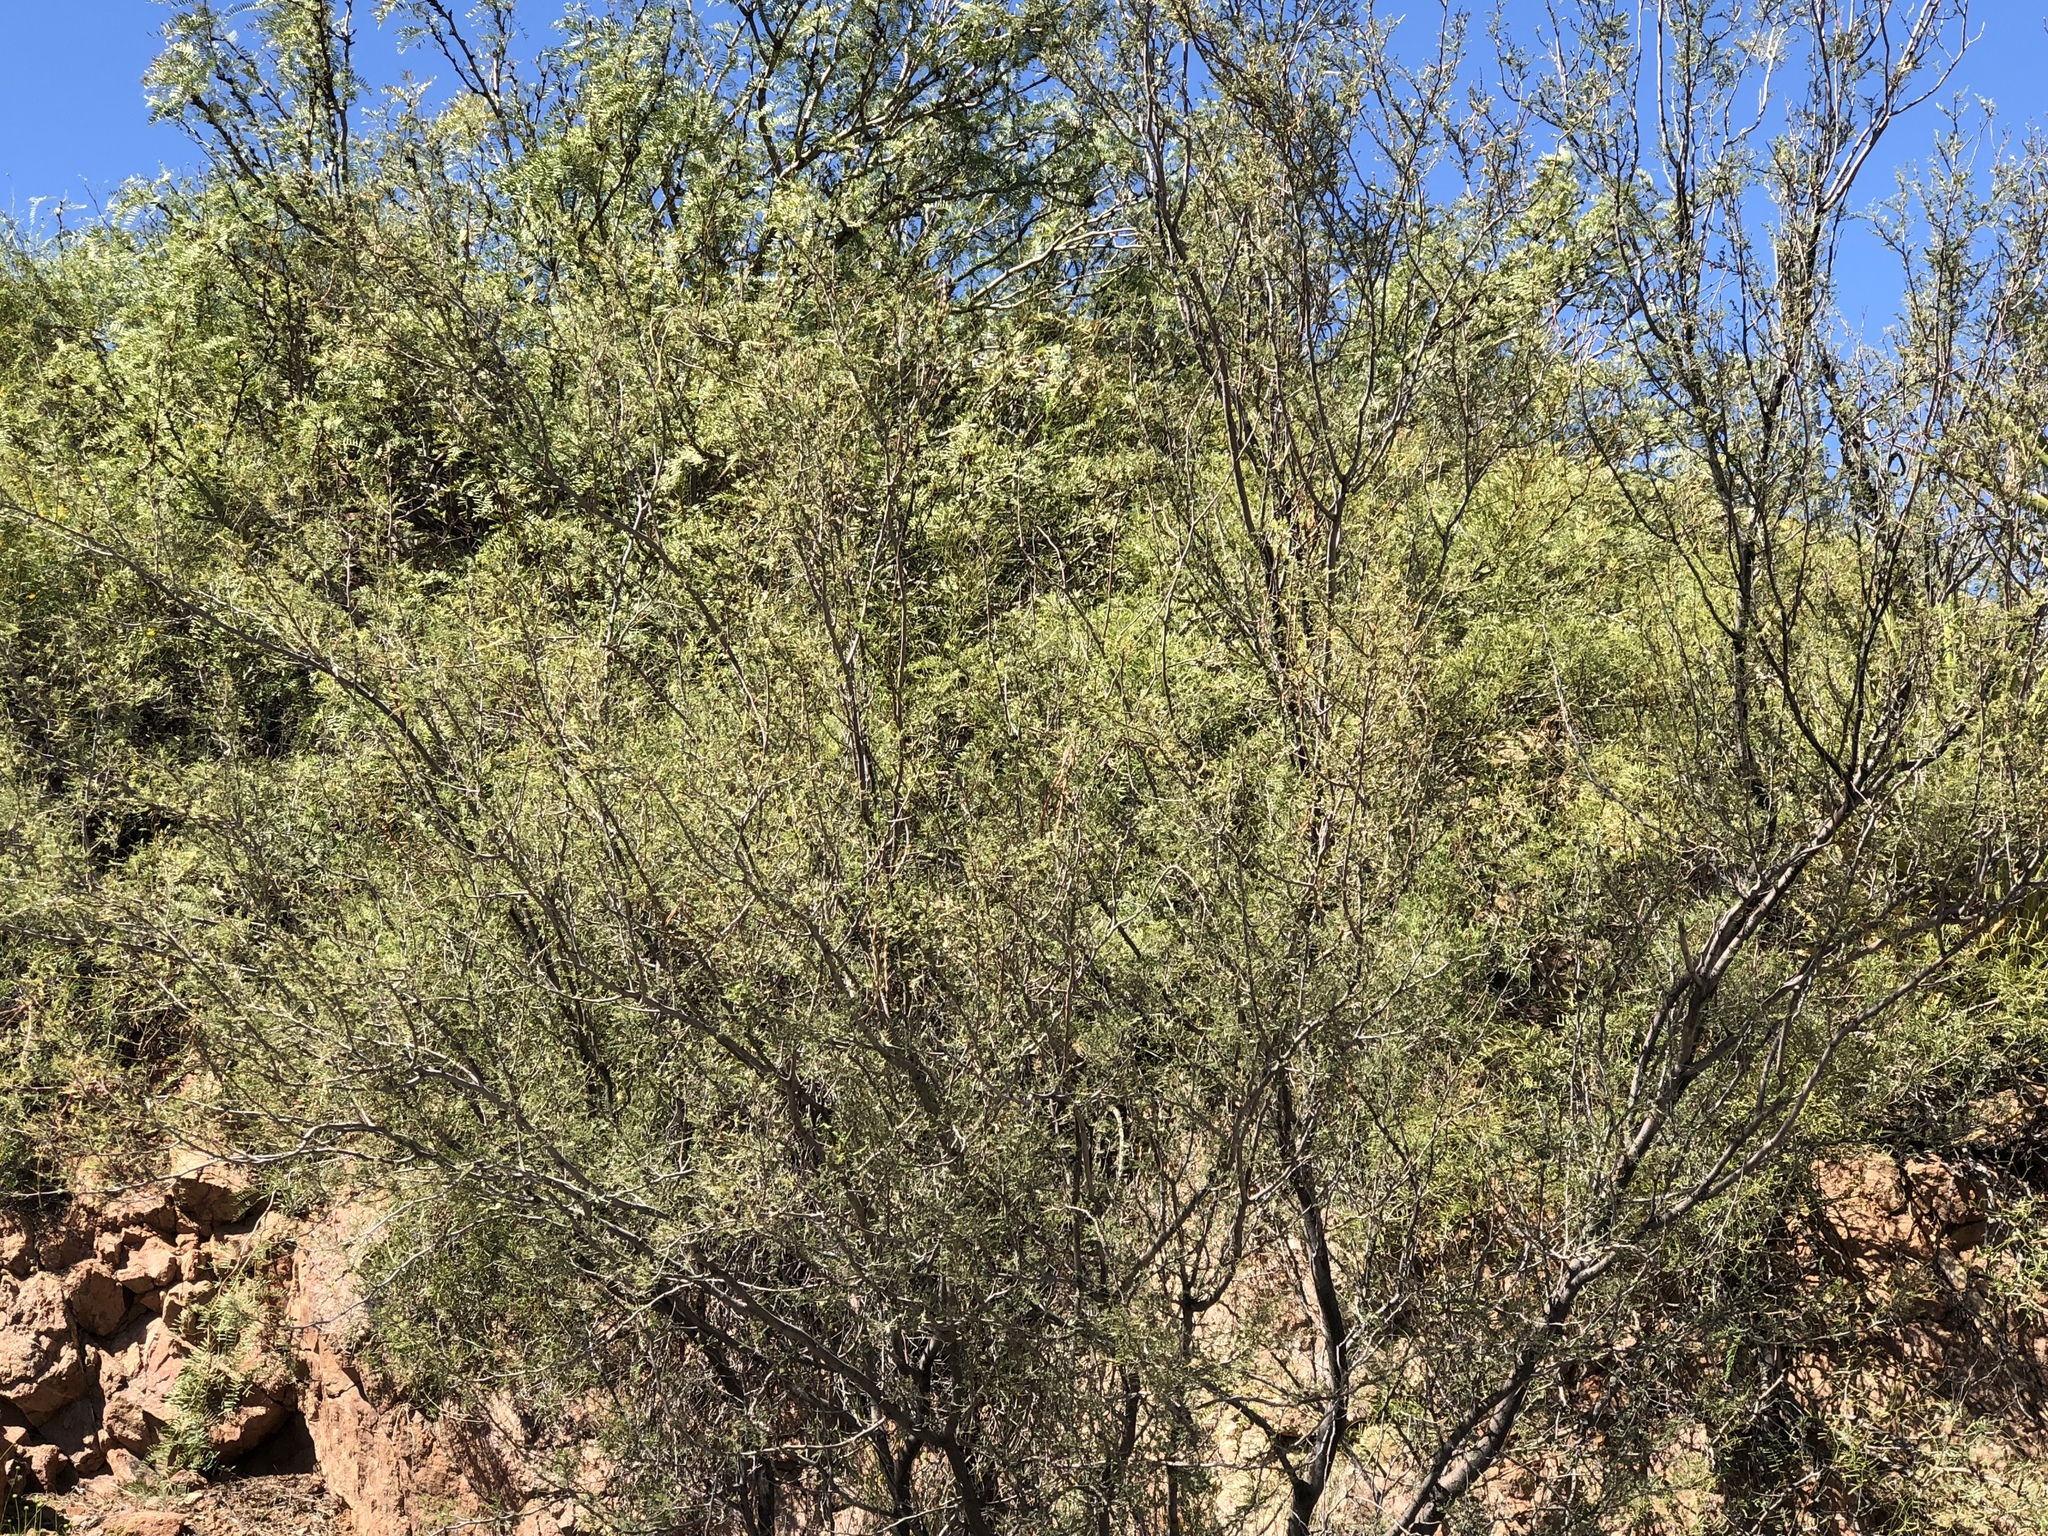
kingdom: Plantae
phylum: Tracheophyta
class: Magnoliopsida
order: Fabales
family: Fabaceae
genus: Vachellia
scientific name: Vachellia constricta
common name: Mescat acacia
